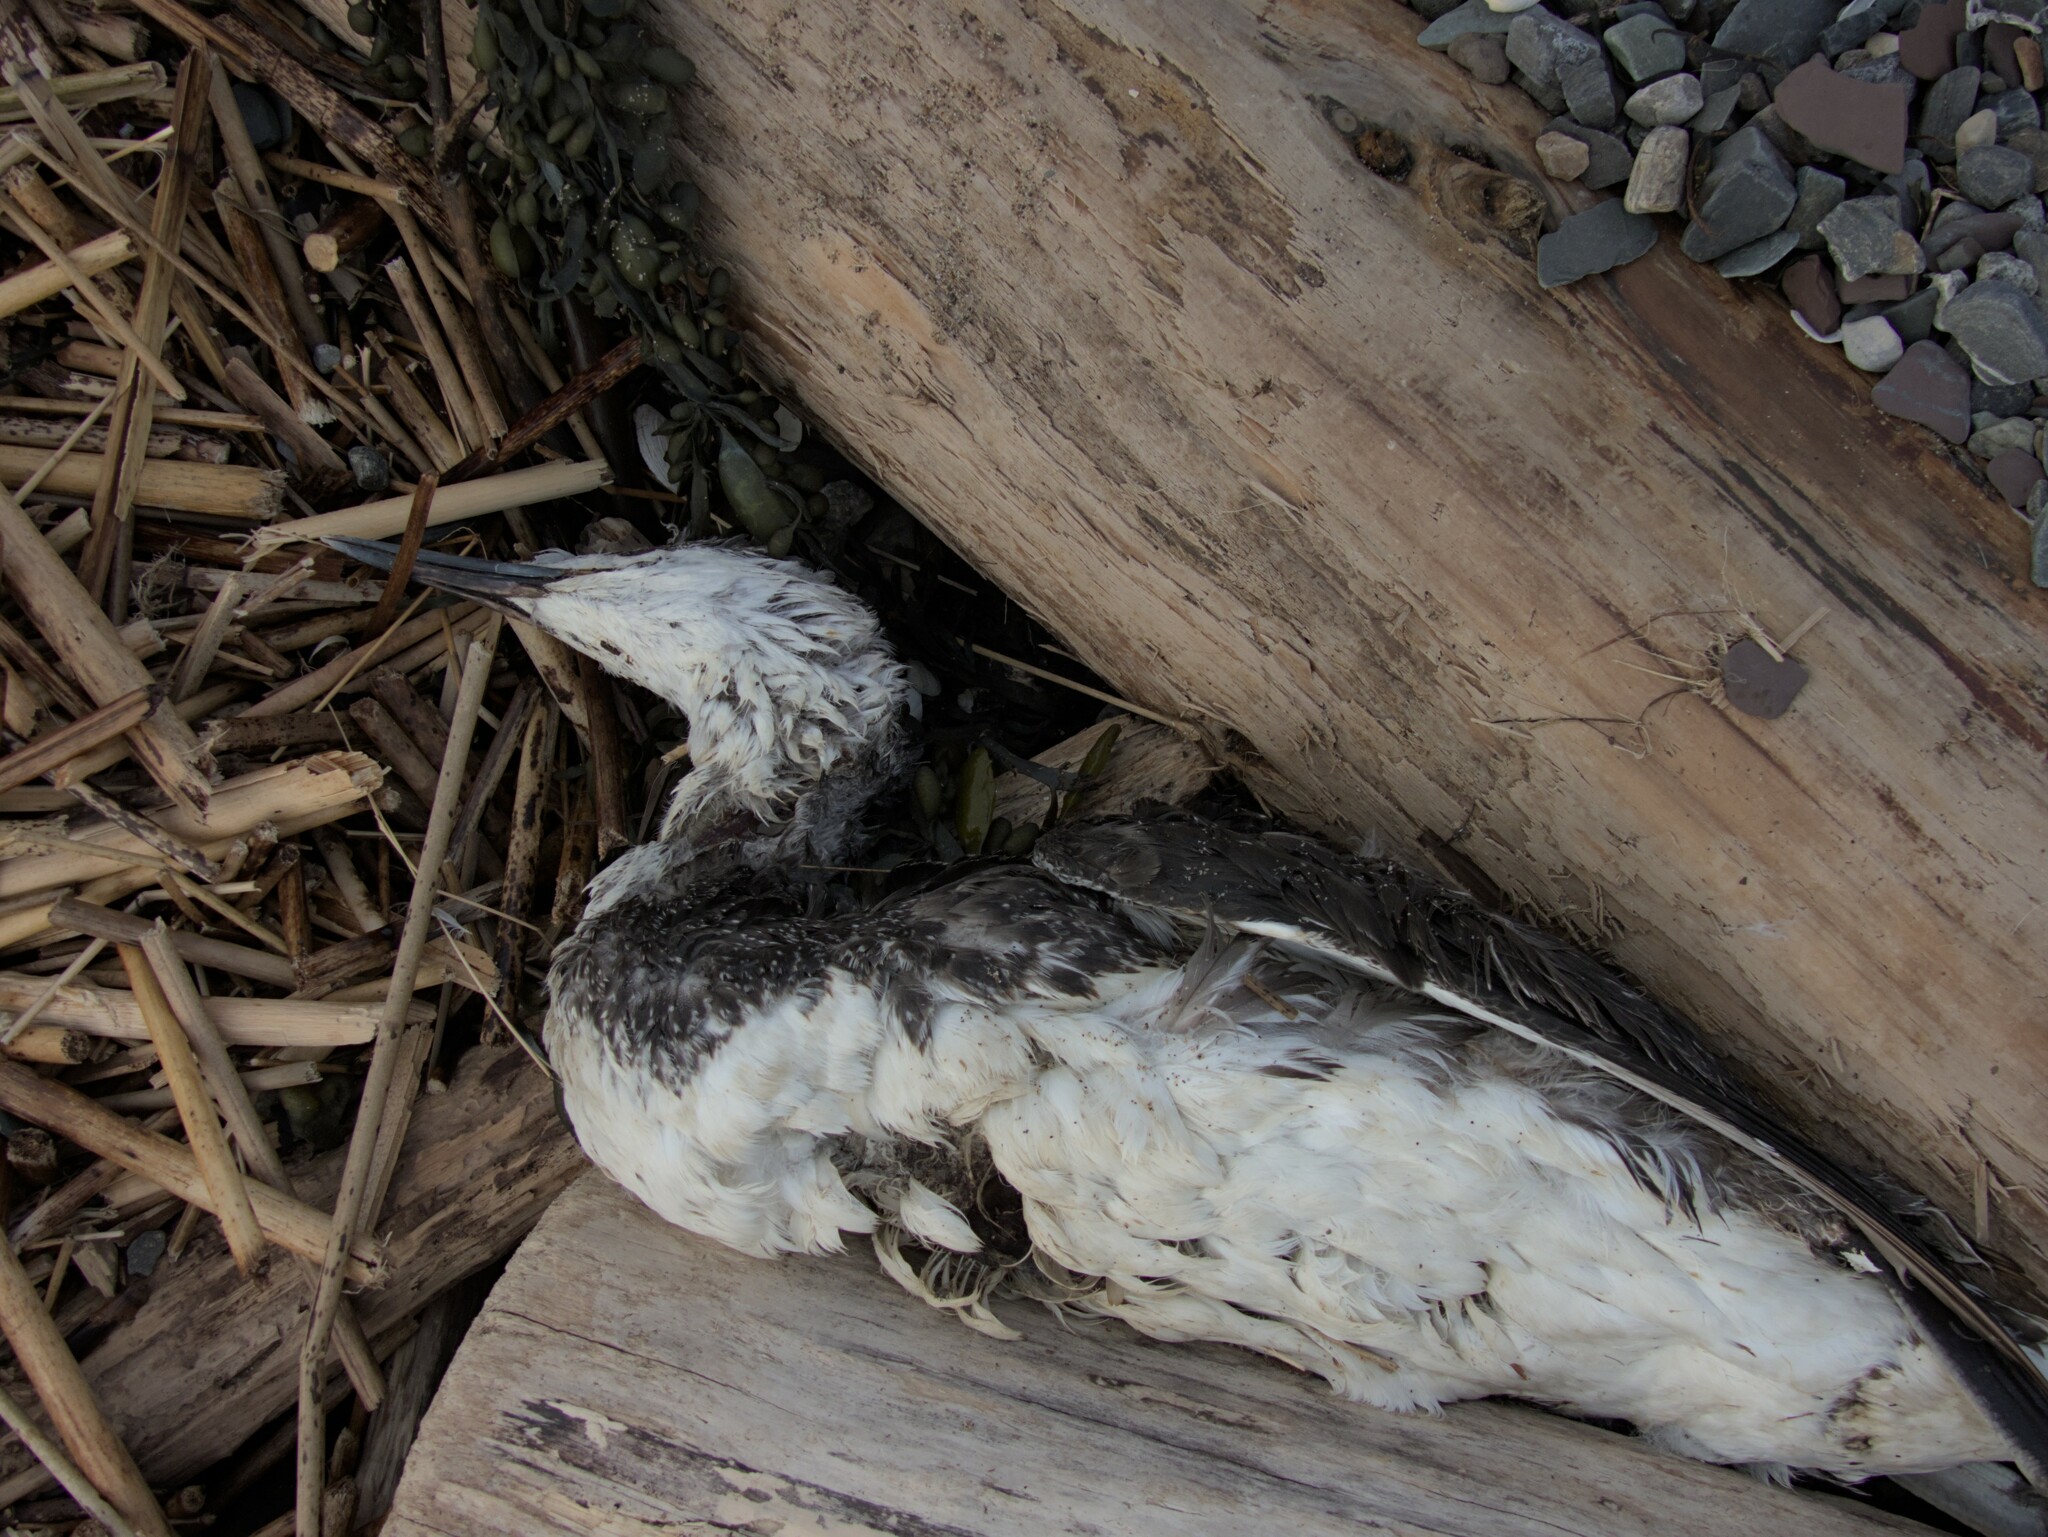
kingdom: Animalia
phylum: Chordata
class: Aves
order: Gaviiformes
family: Gaviidae
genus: Gavia
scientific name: Gavia stellata
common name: Red-throated loon
